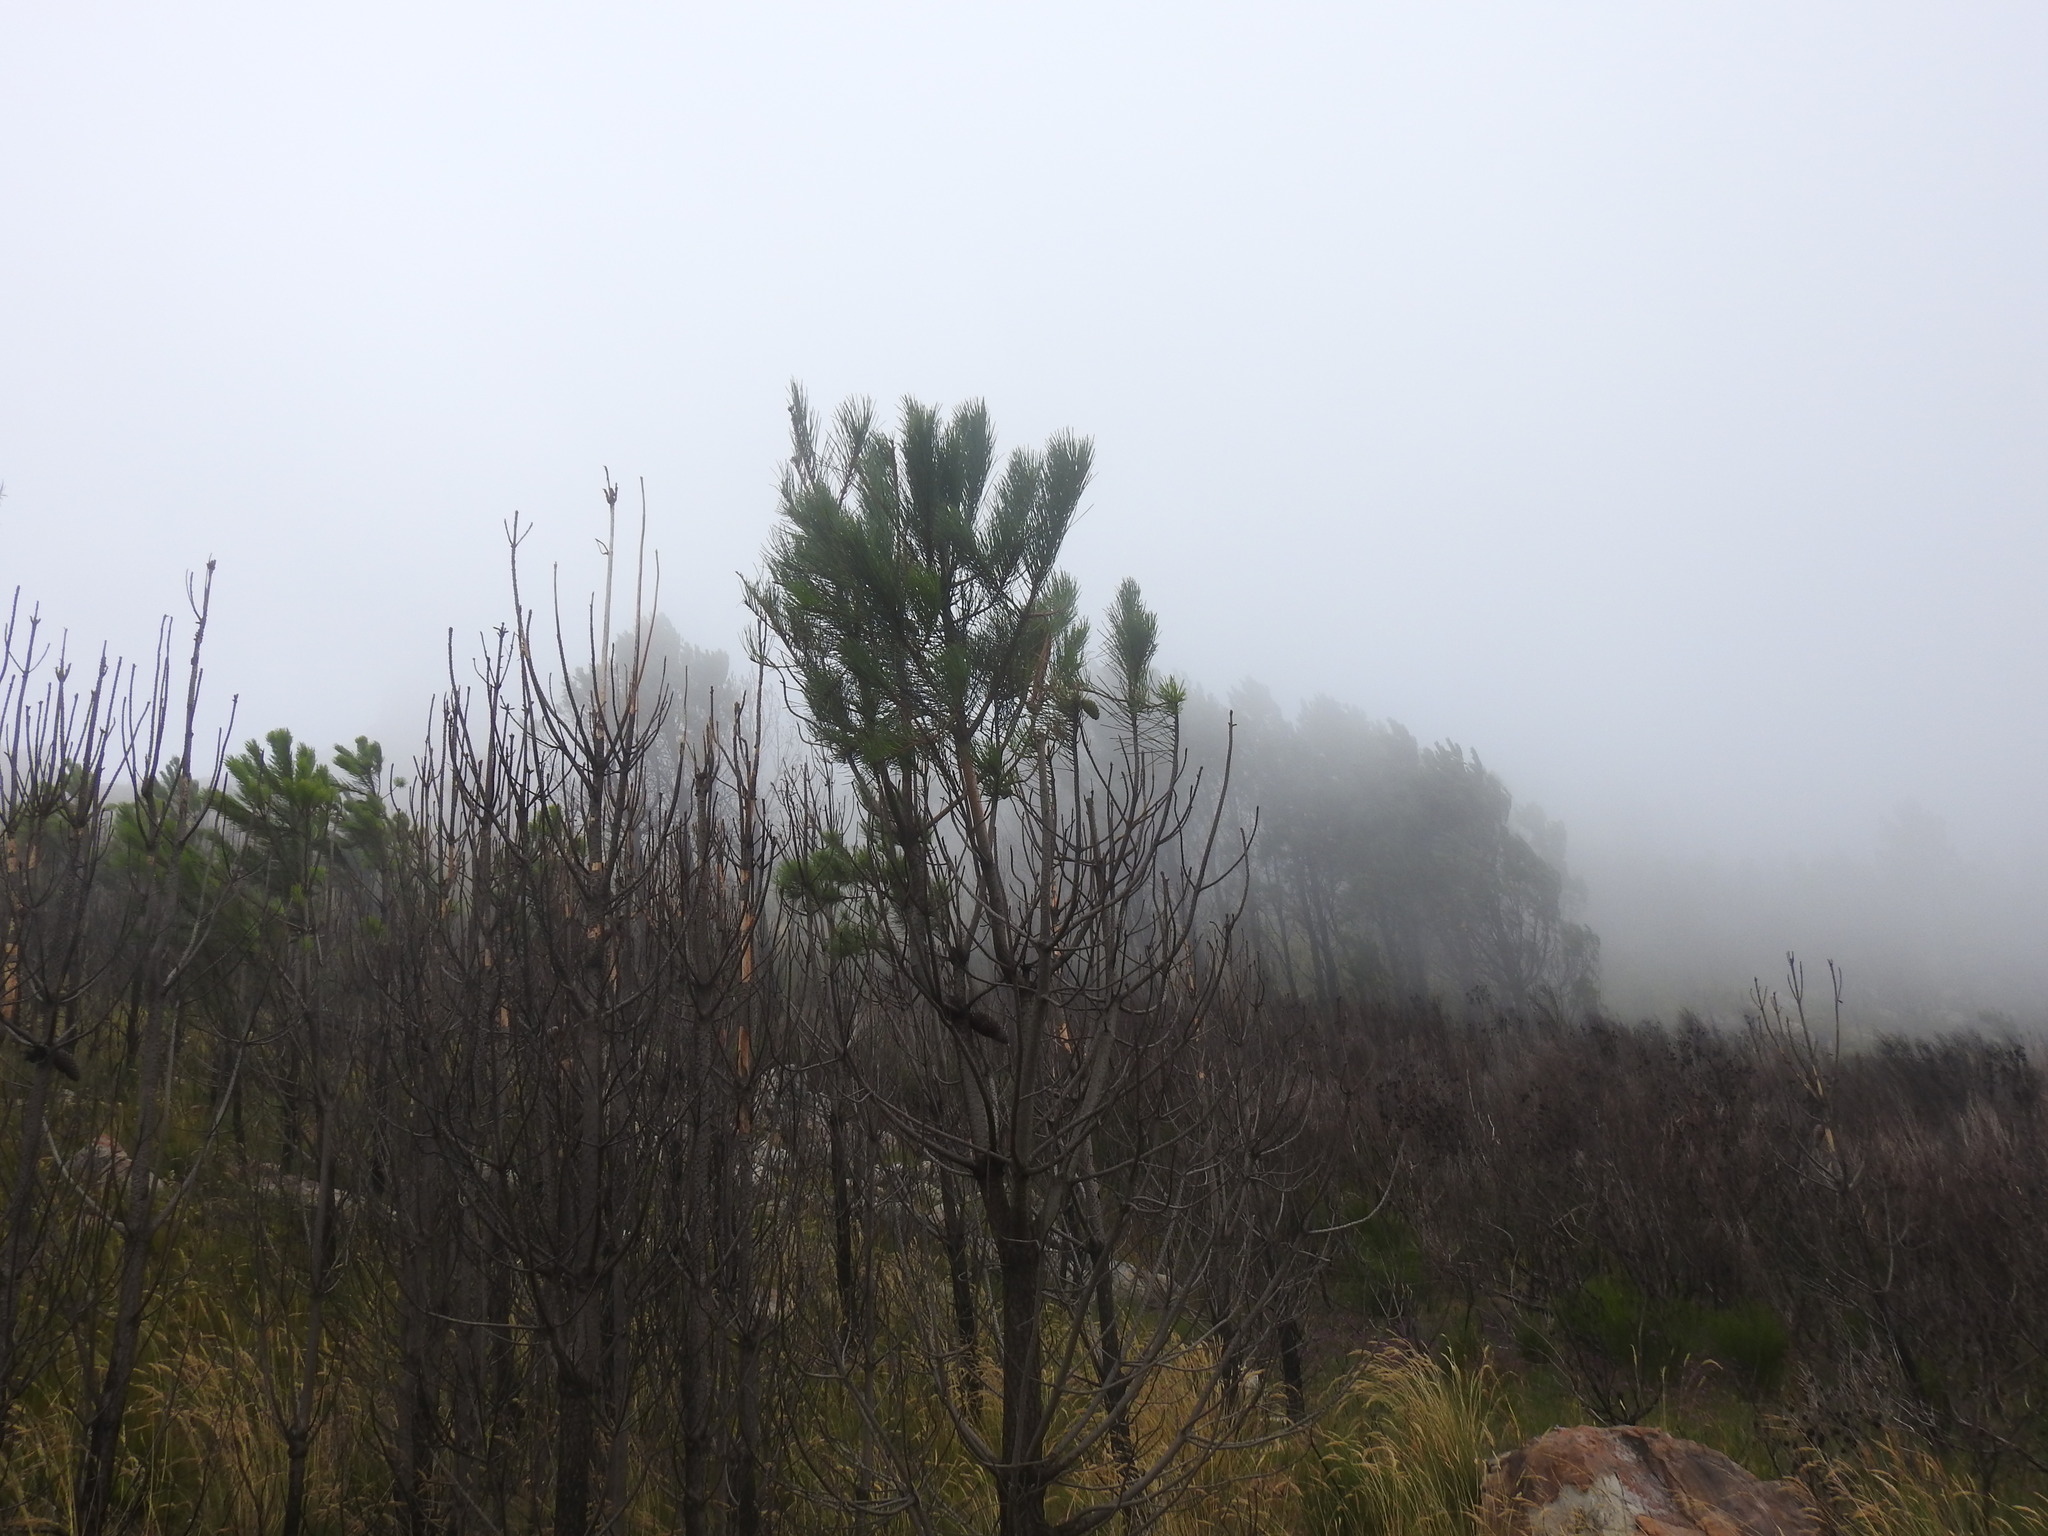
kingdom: Plantae
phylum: Tracheophyta
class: Pinopsida
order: Pinales
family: Pinaceae
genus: Pinus
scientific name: Pinus pinaster
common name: Maritime pine
